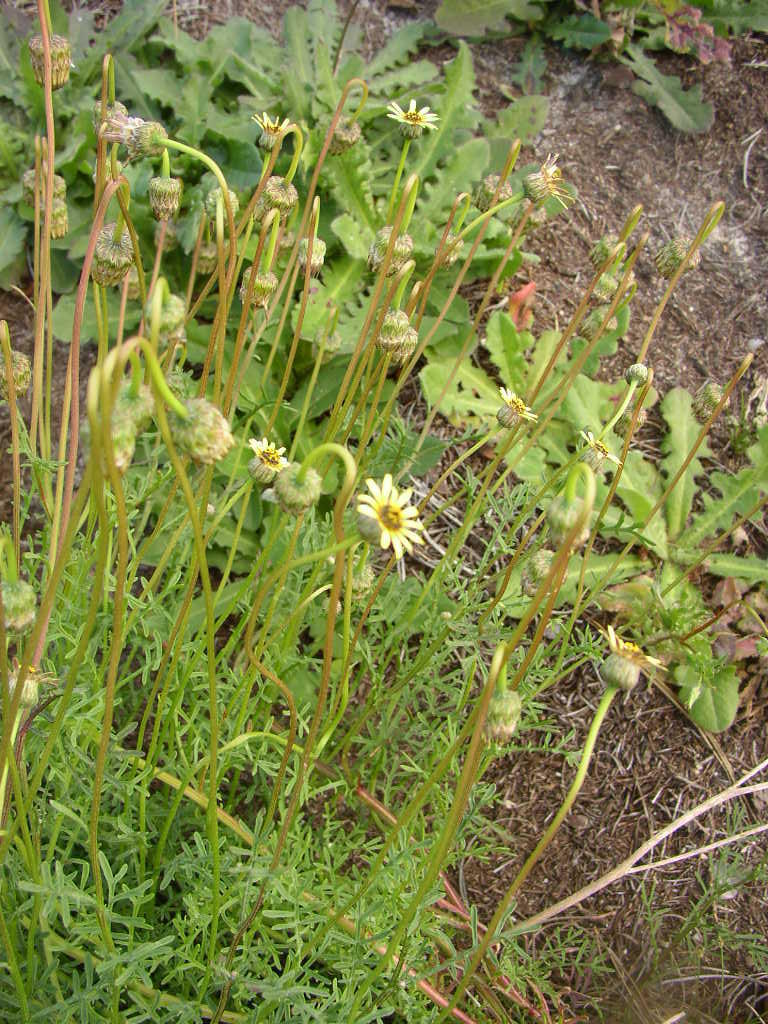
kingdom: Plantae
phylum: Tracheophyta
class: Magnoliopsida
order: Asterales
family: Asteraceae
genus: Ursinia
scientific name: Ursinia anthemoides
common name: Ursinia
